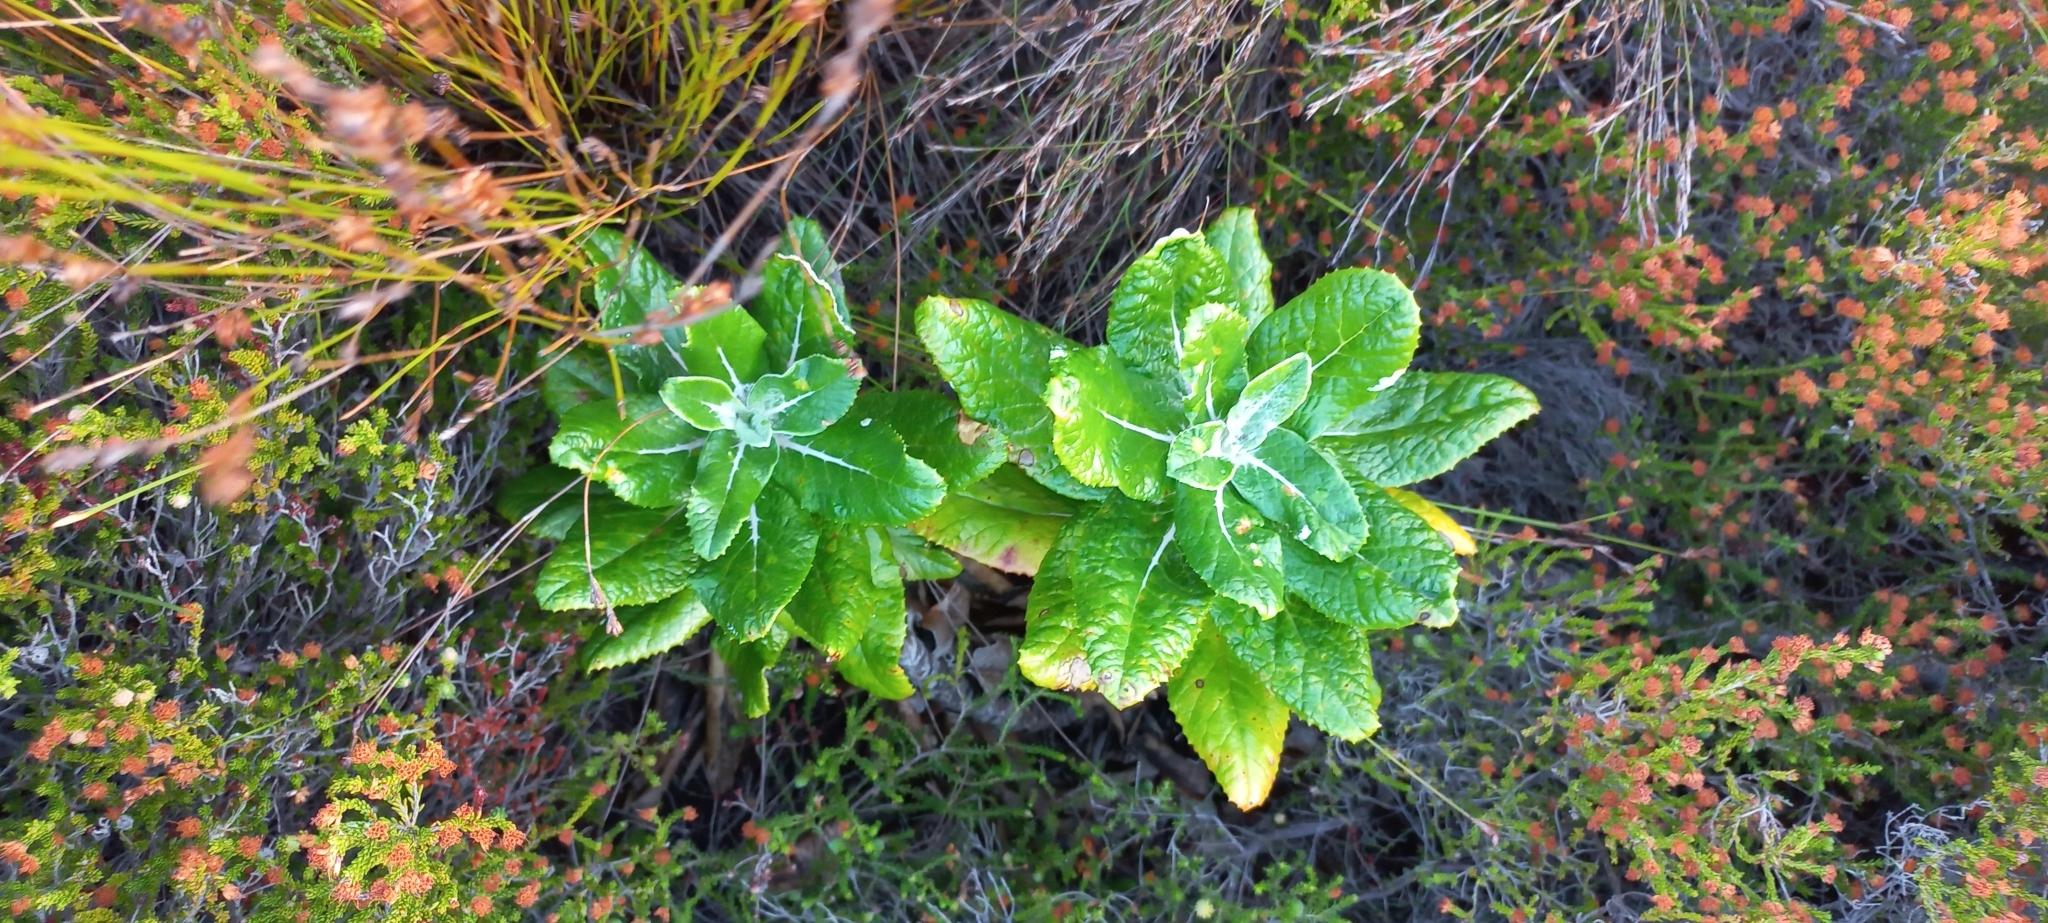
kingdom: Plantae
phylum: Tracheophyta
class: Magnoliopsida
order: Apiales
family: Apiaceae
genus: Hermas
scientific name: Hermas villosa
